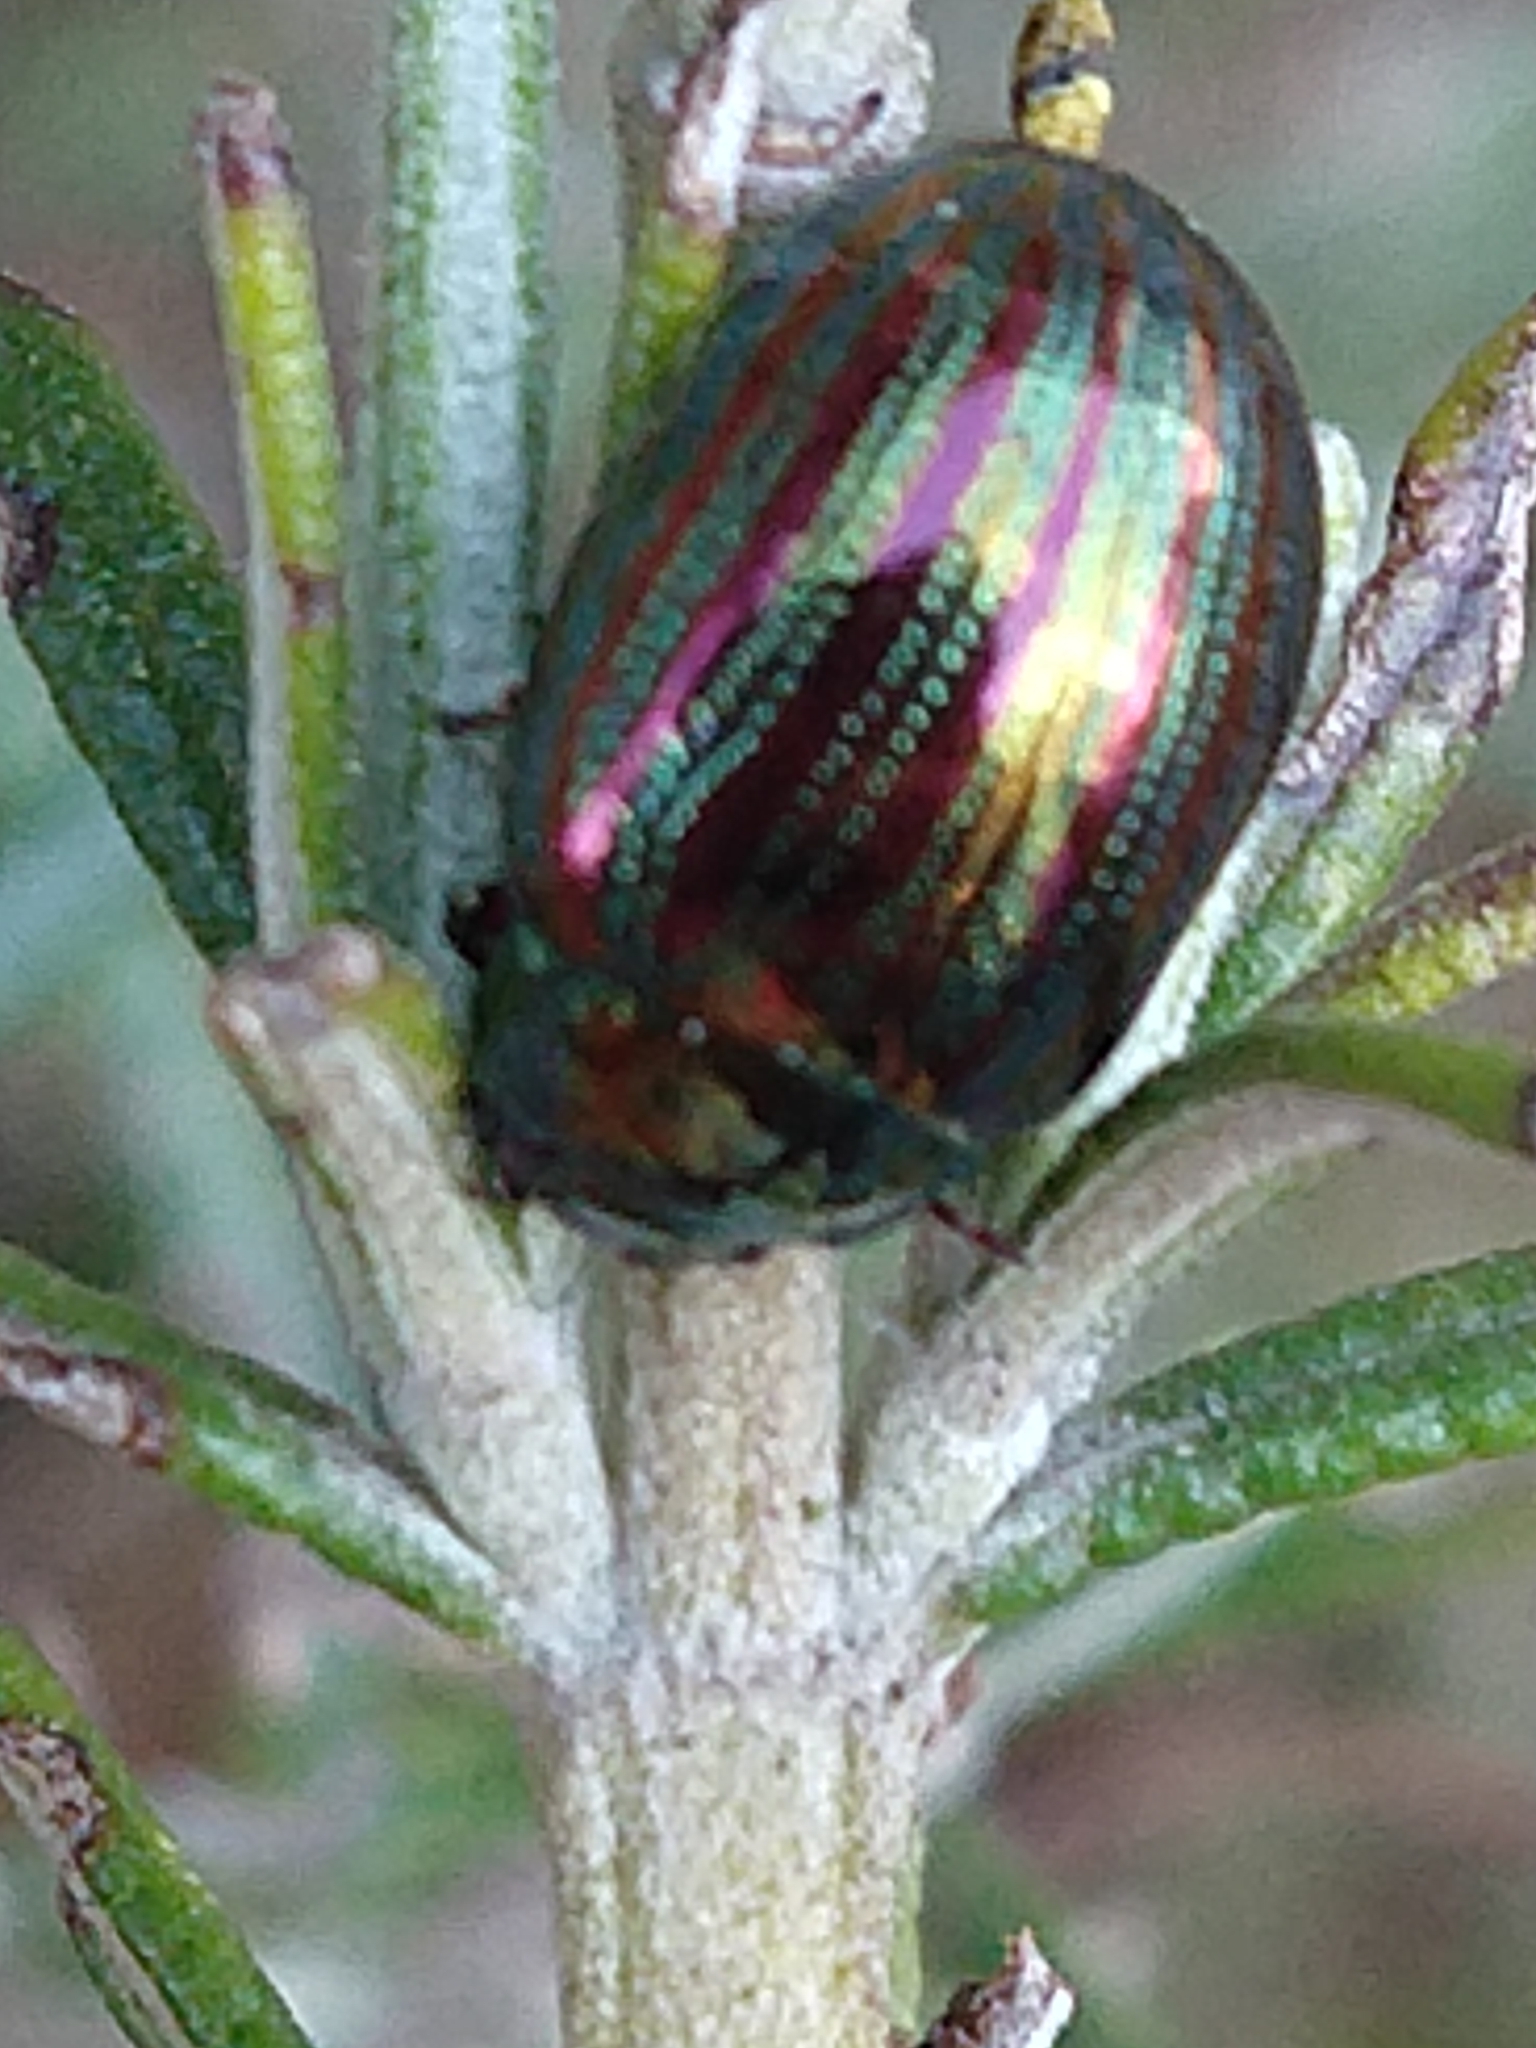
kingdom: Animalia
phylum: Arthropoda
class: Insecta
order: Coleoptera
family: Chrysomelidae
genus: Chrysolina
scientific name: Chrysolina americana
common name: Rosemary beetle
